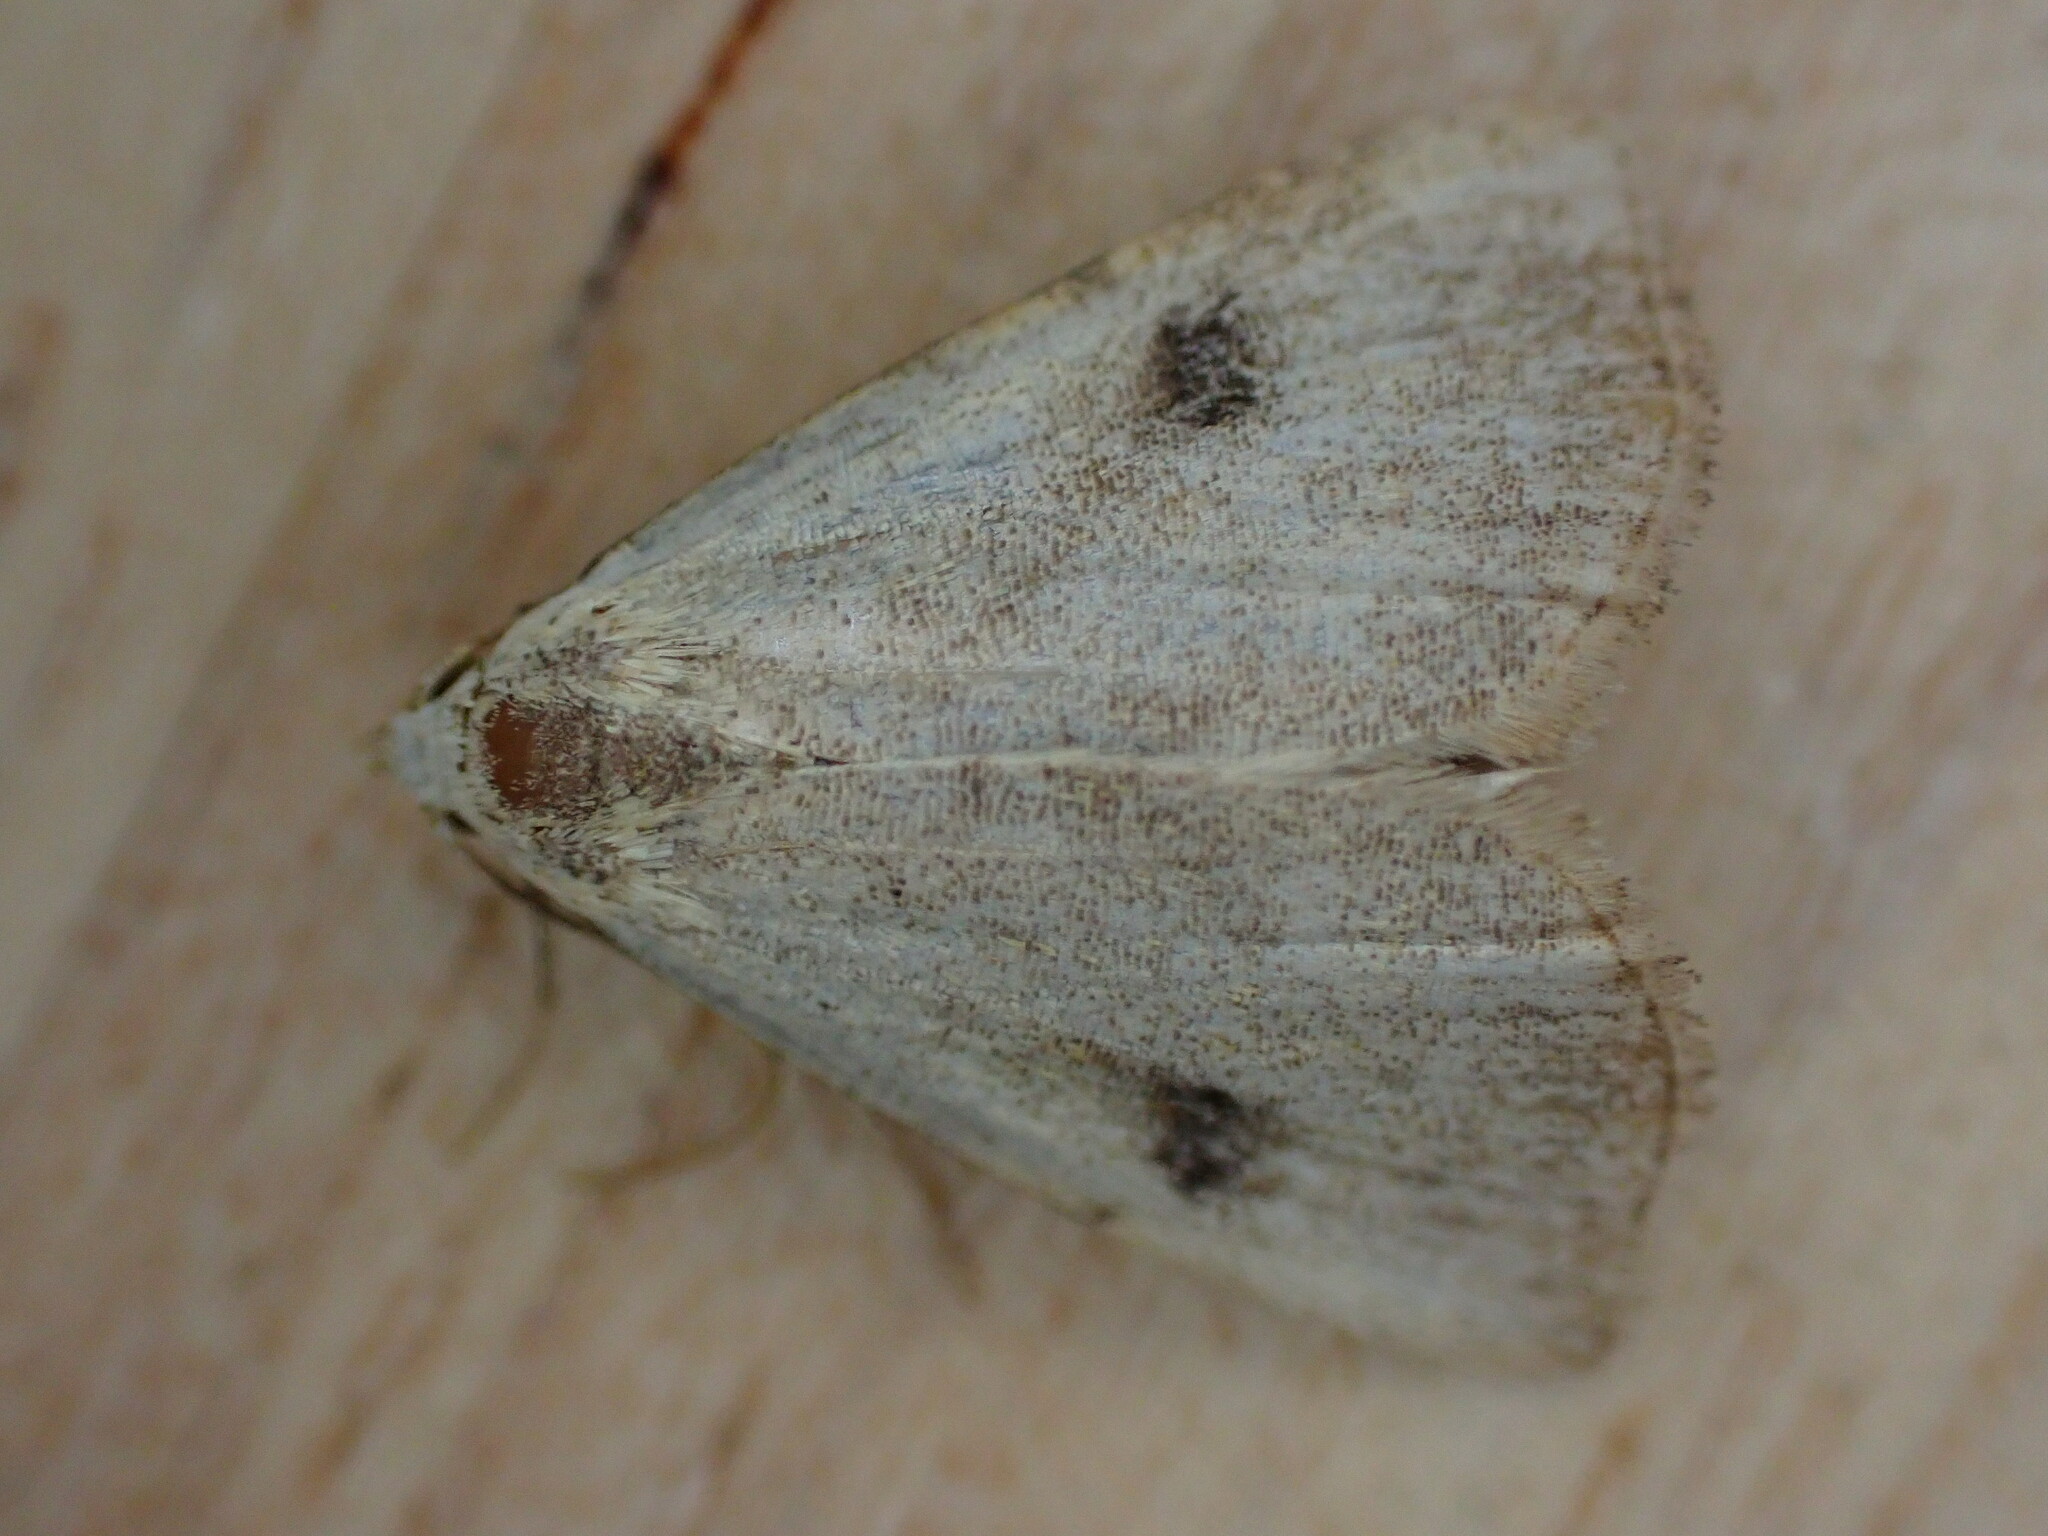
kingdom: Animalia
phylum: Arthropoda
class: Insecta
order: Lepidoptera
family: Erebidae
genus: Rivula
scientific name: Rivula sericealis
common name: Straw dot
